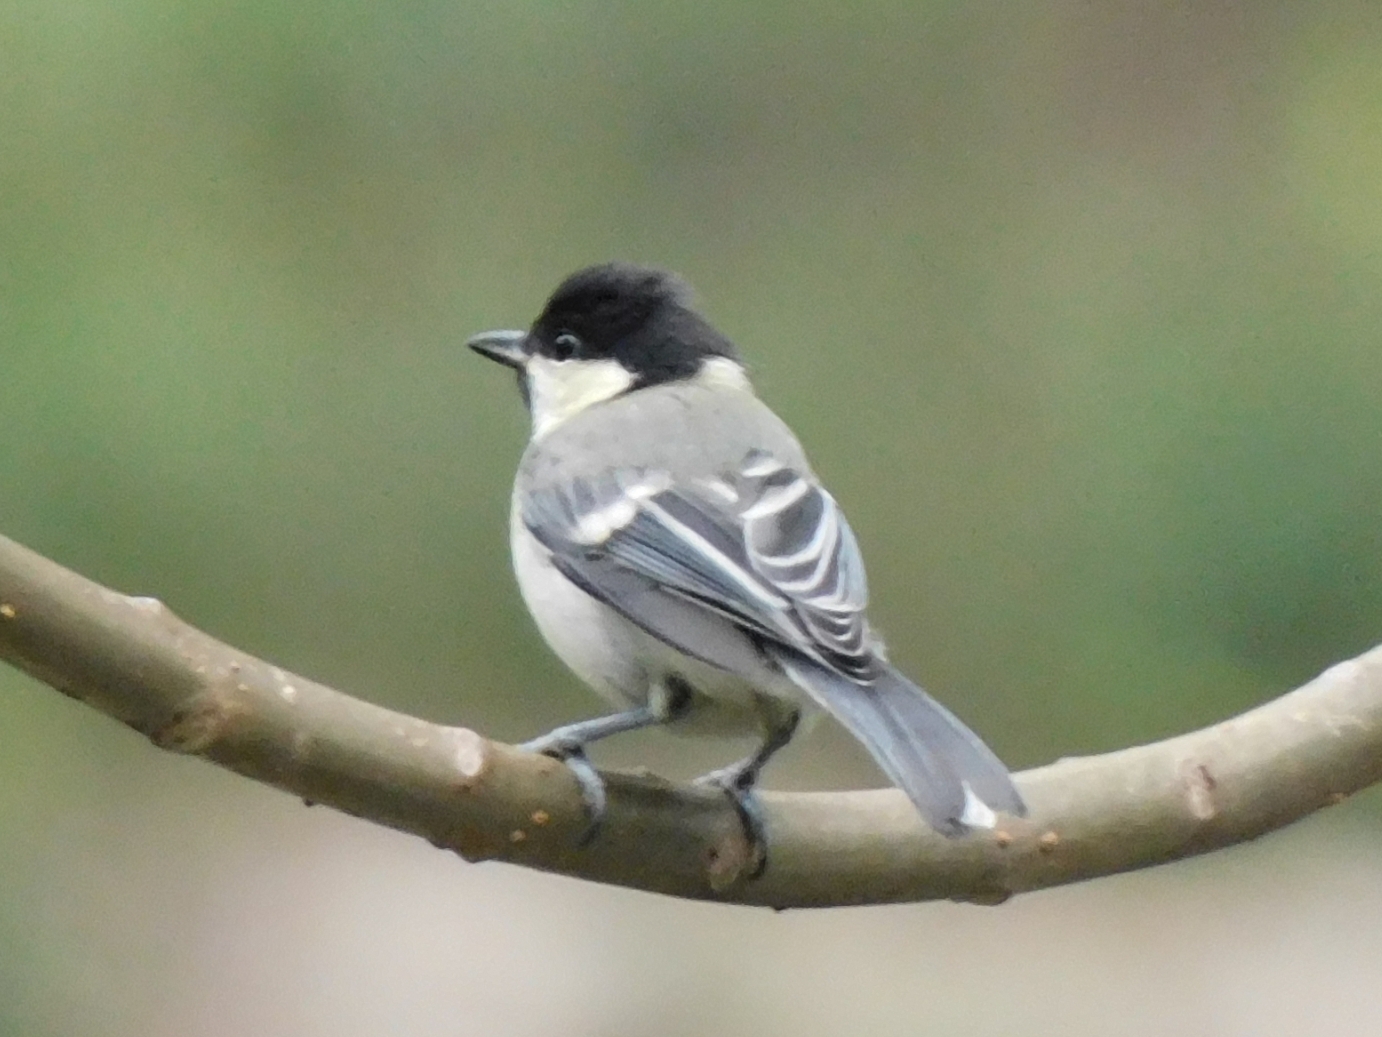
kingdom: Animalia
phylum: Chordata
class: Aves
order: Passeriformes
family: Paridae
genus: Parus
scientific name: Parus cinereus
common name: Cinereous tit
